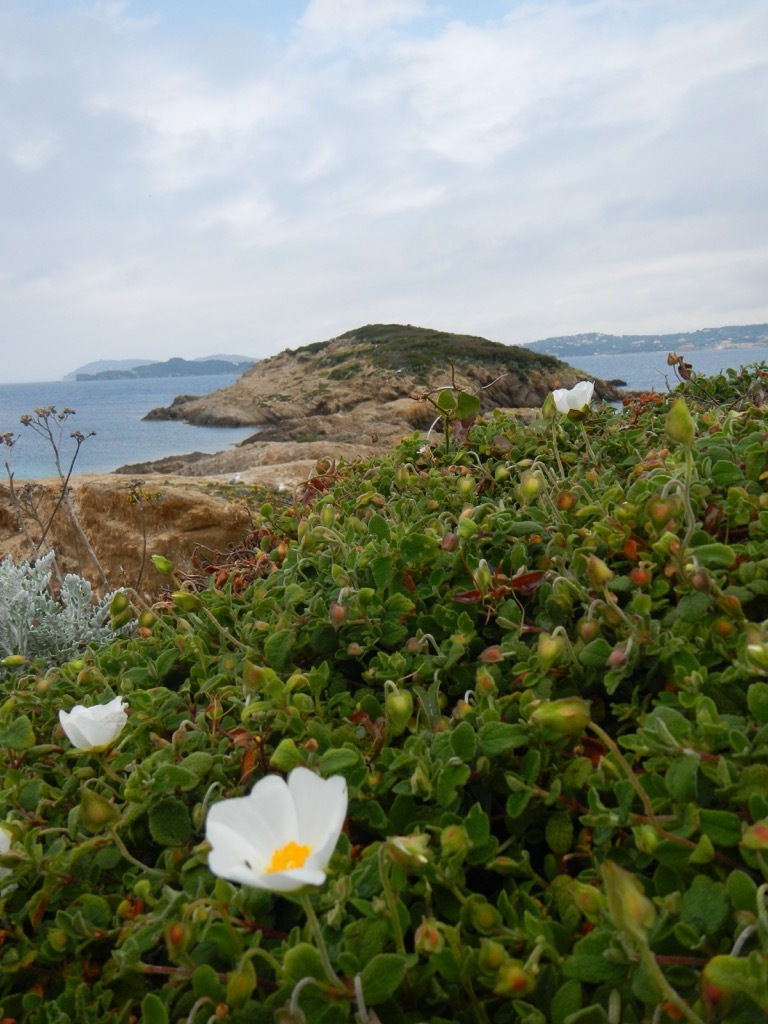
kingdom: Plantae
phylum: Tracheophyta
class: Magnoliopsida
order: Malvales
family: Cistaceae
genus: Cistus
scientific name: Cistus salviifolius
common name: Salvia cistus
